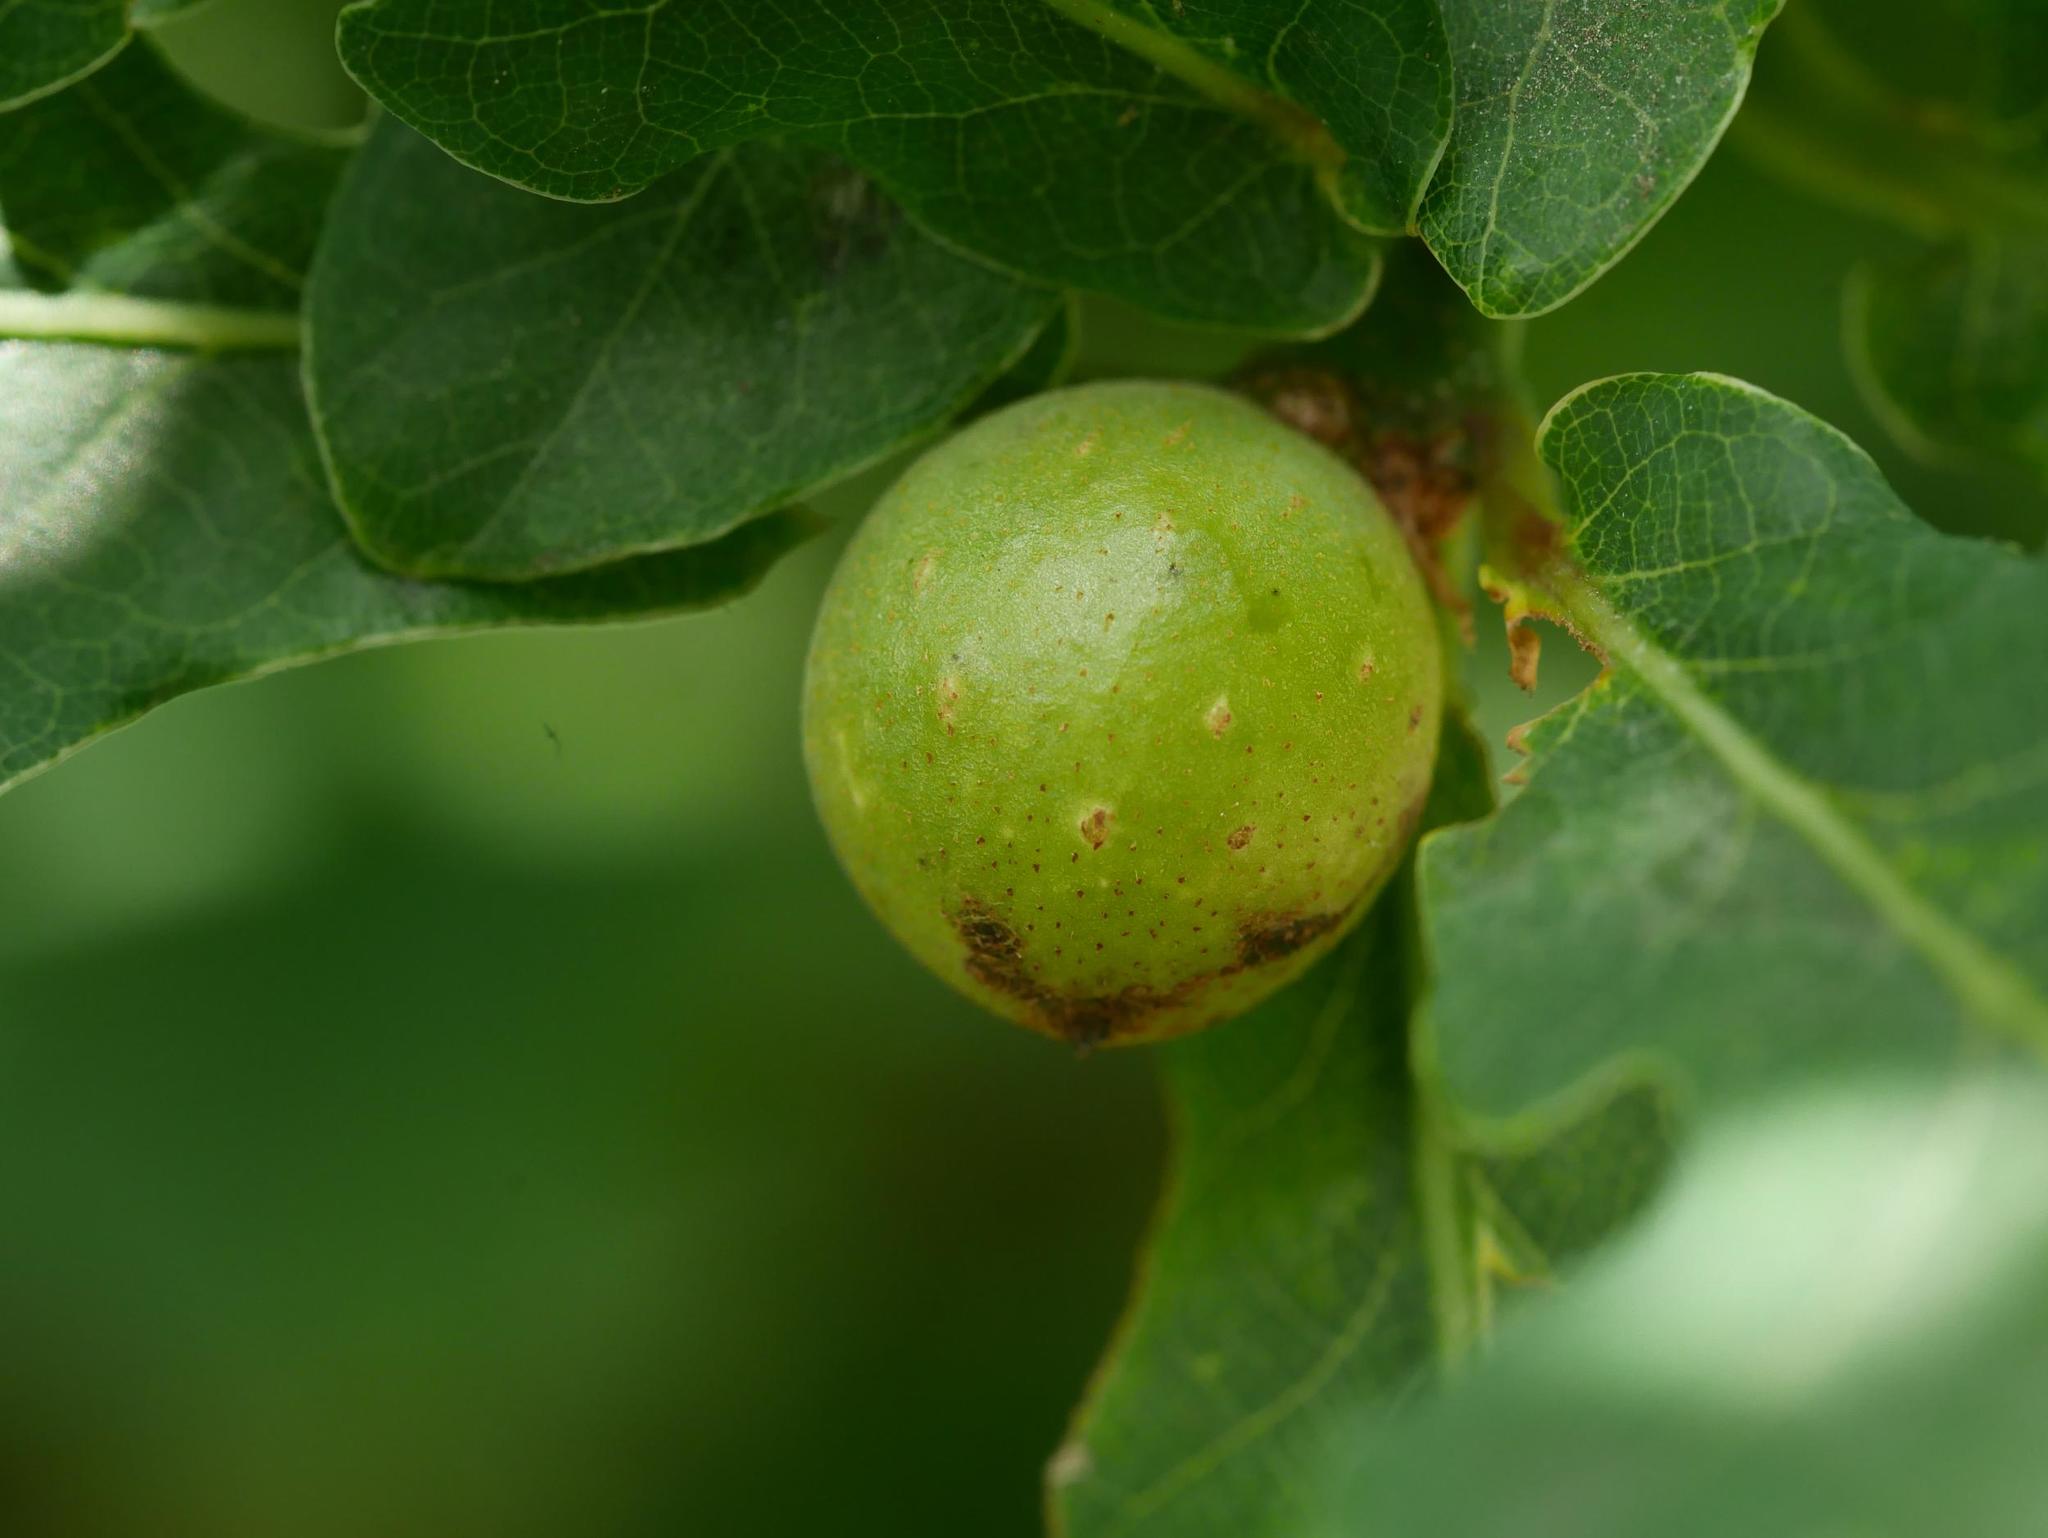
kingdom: Animalia
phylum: Arthropoda
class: Insecta
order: Hymenoptera
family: Cynipidae
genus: Andricus
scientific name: Andricus kollari
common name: Marble gall
